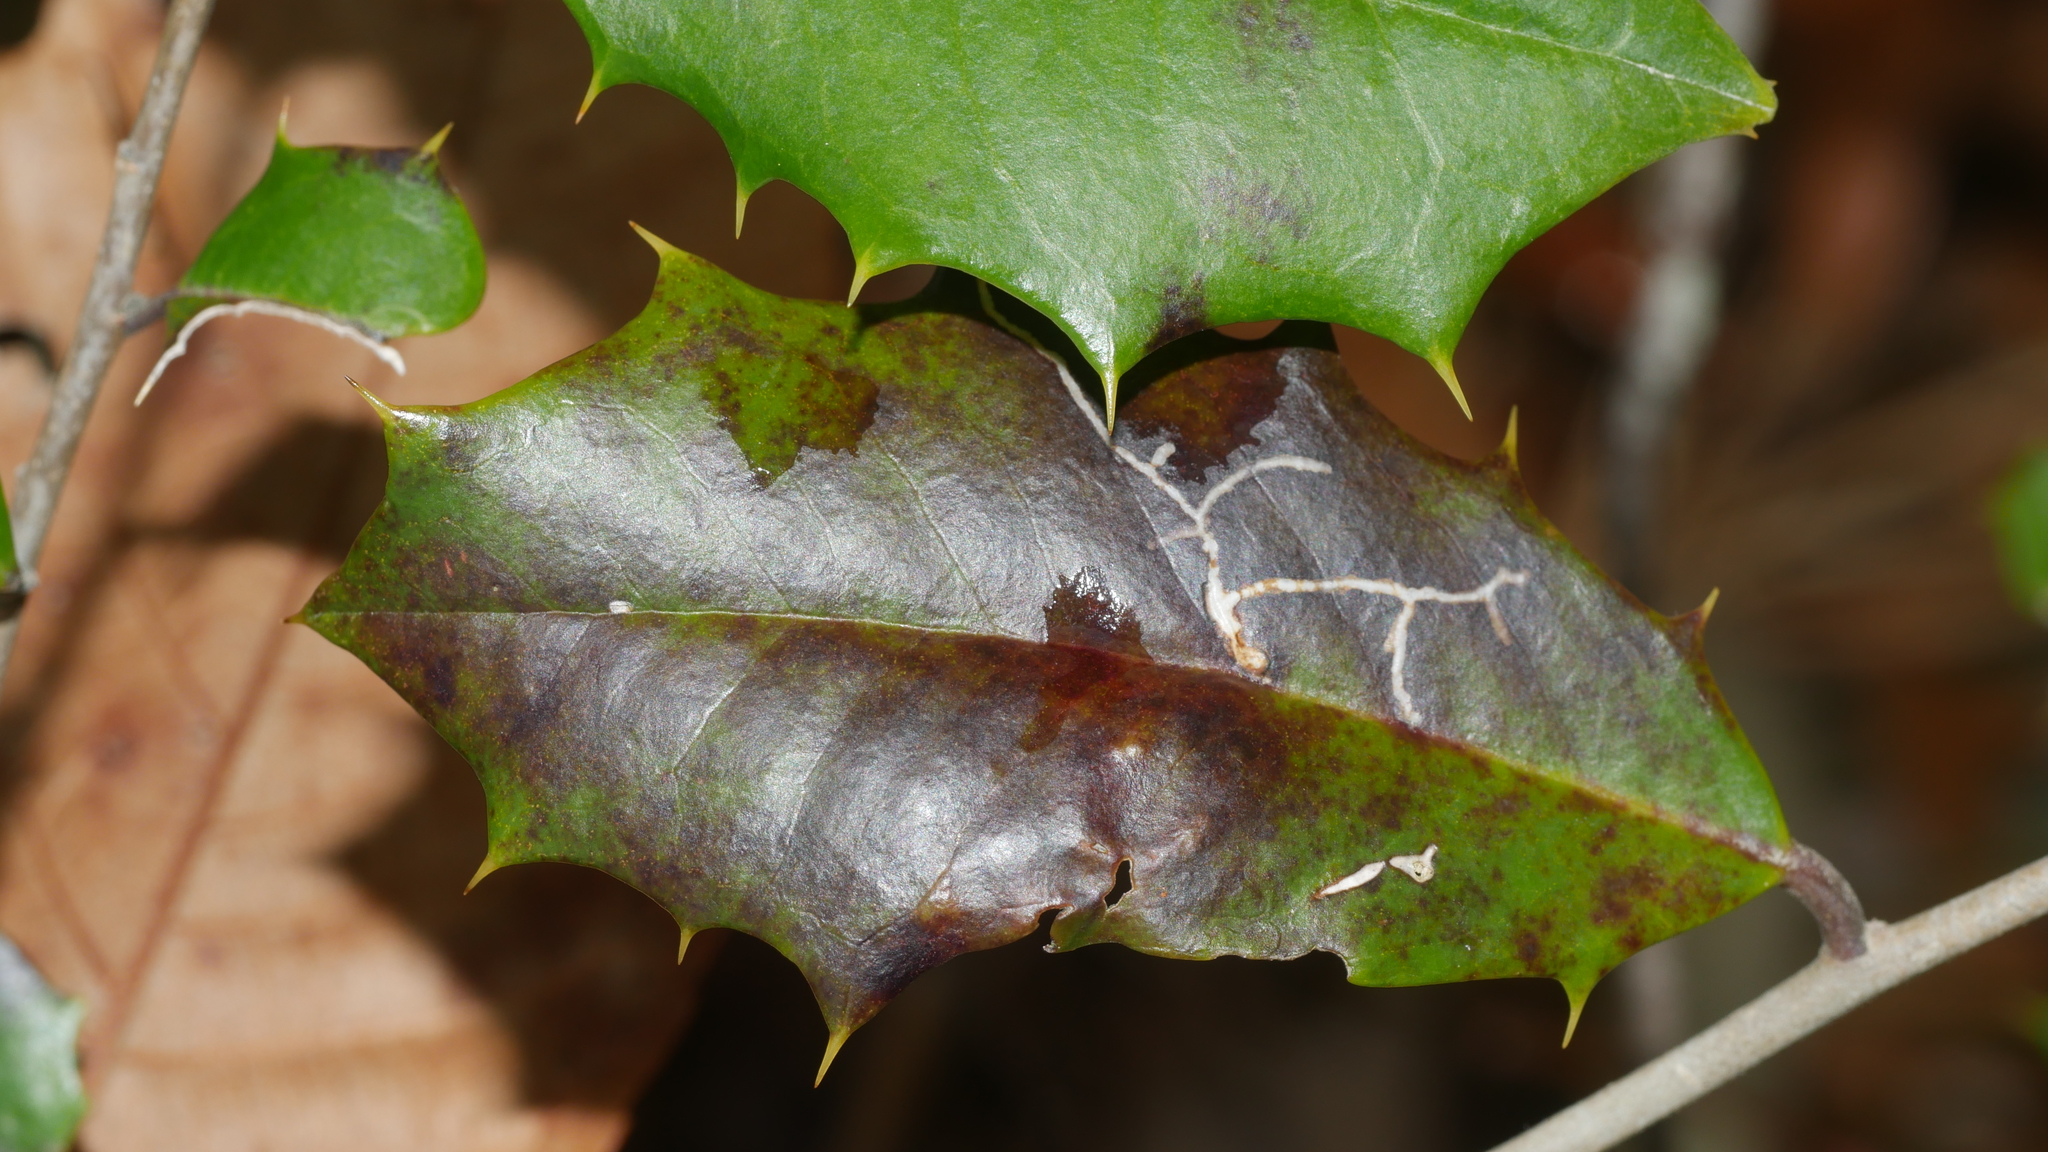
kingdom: Animalia
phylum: Arthropoda
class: Insecta
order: Lepidoptera
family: Tortricidae
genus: Rhopobota
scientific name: Rhopobota
